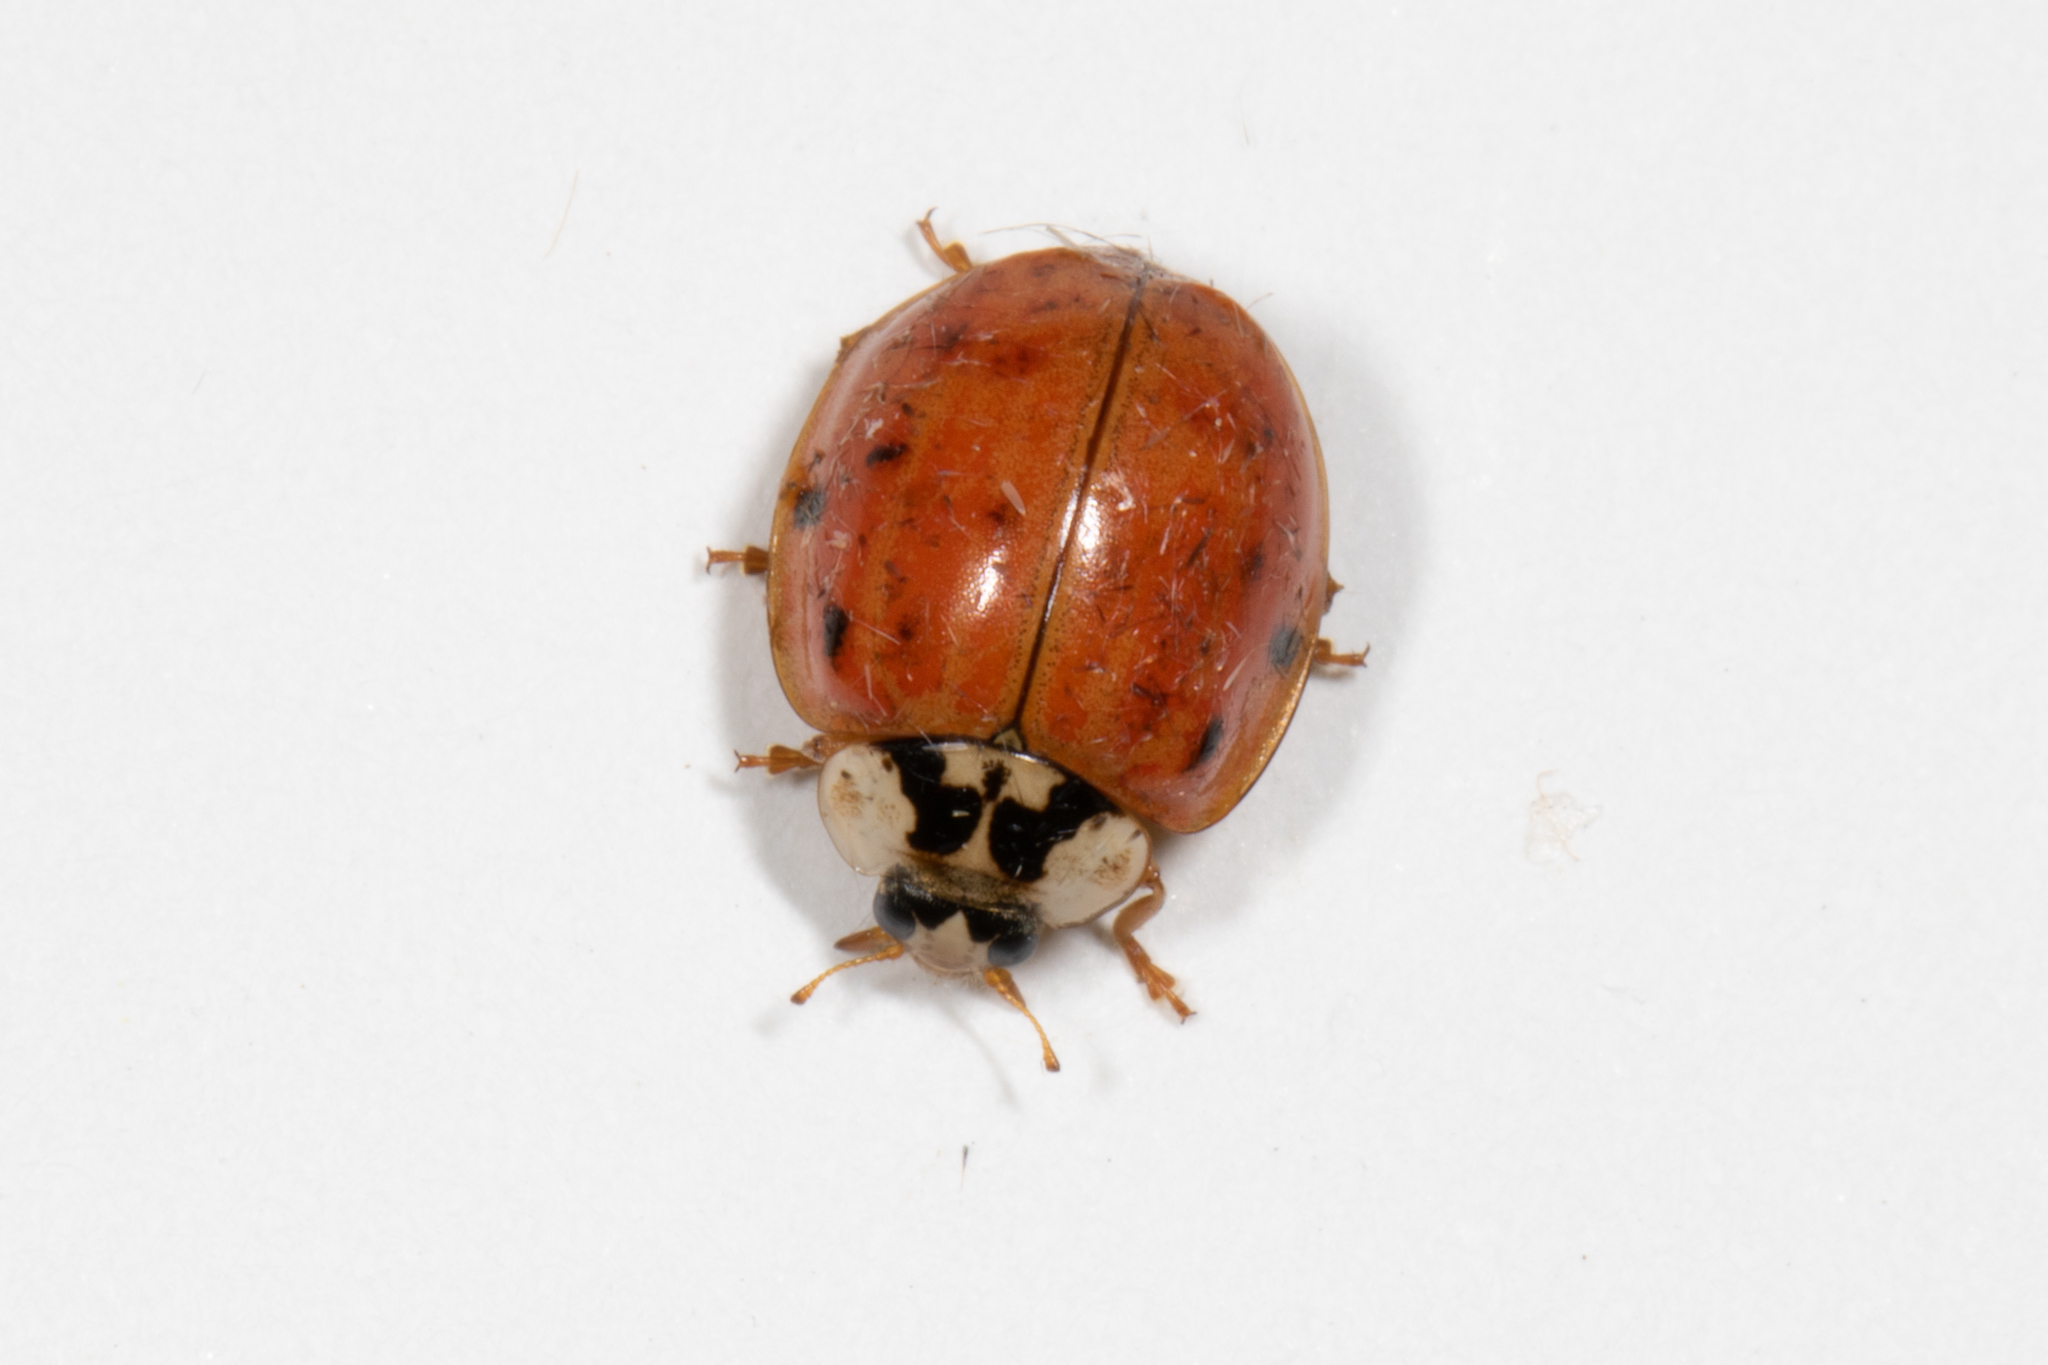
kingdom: Animalia
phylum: Arthropoda
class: Insecta
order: Coleoptera
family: Coccinellidae
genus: Harmonia
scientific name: Harmonia axyridis
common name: Harlequin ladybird
